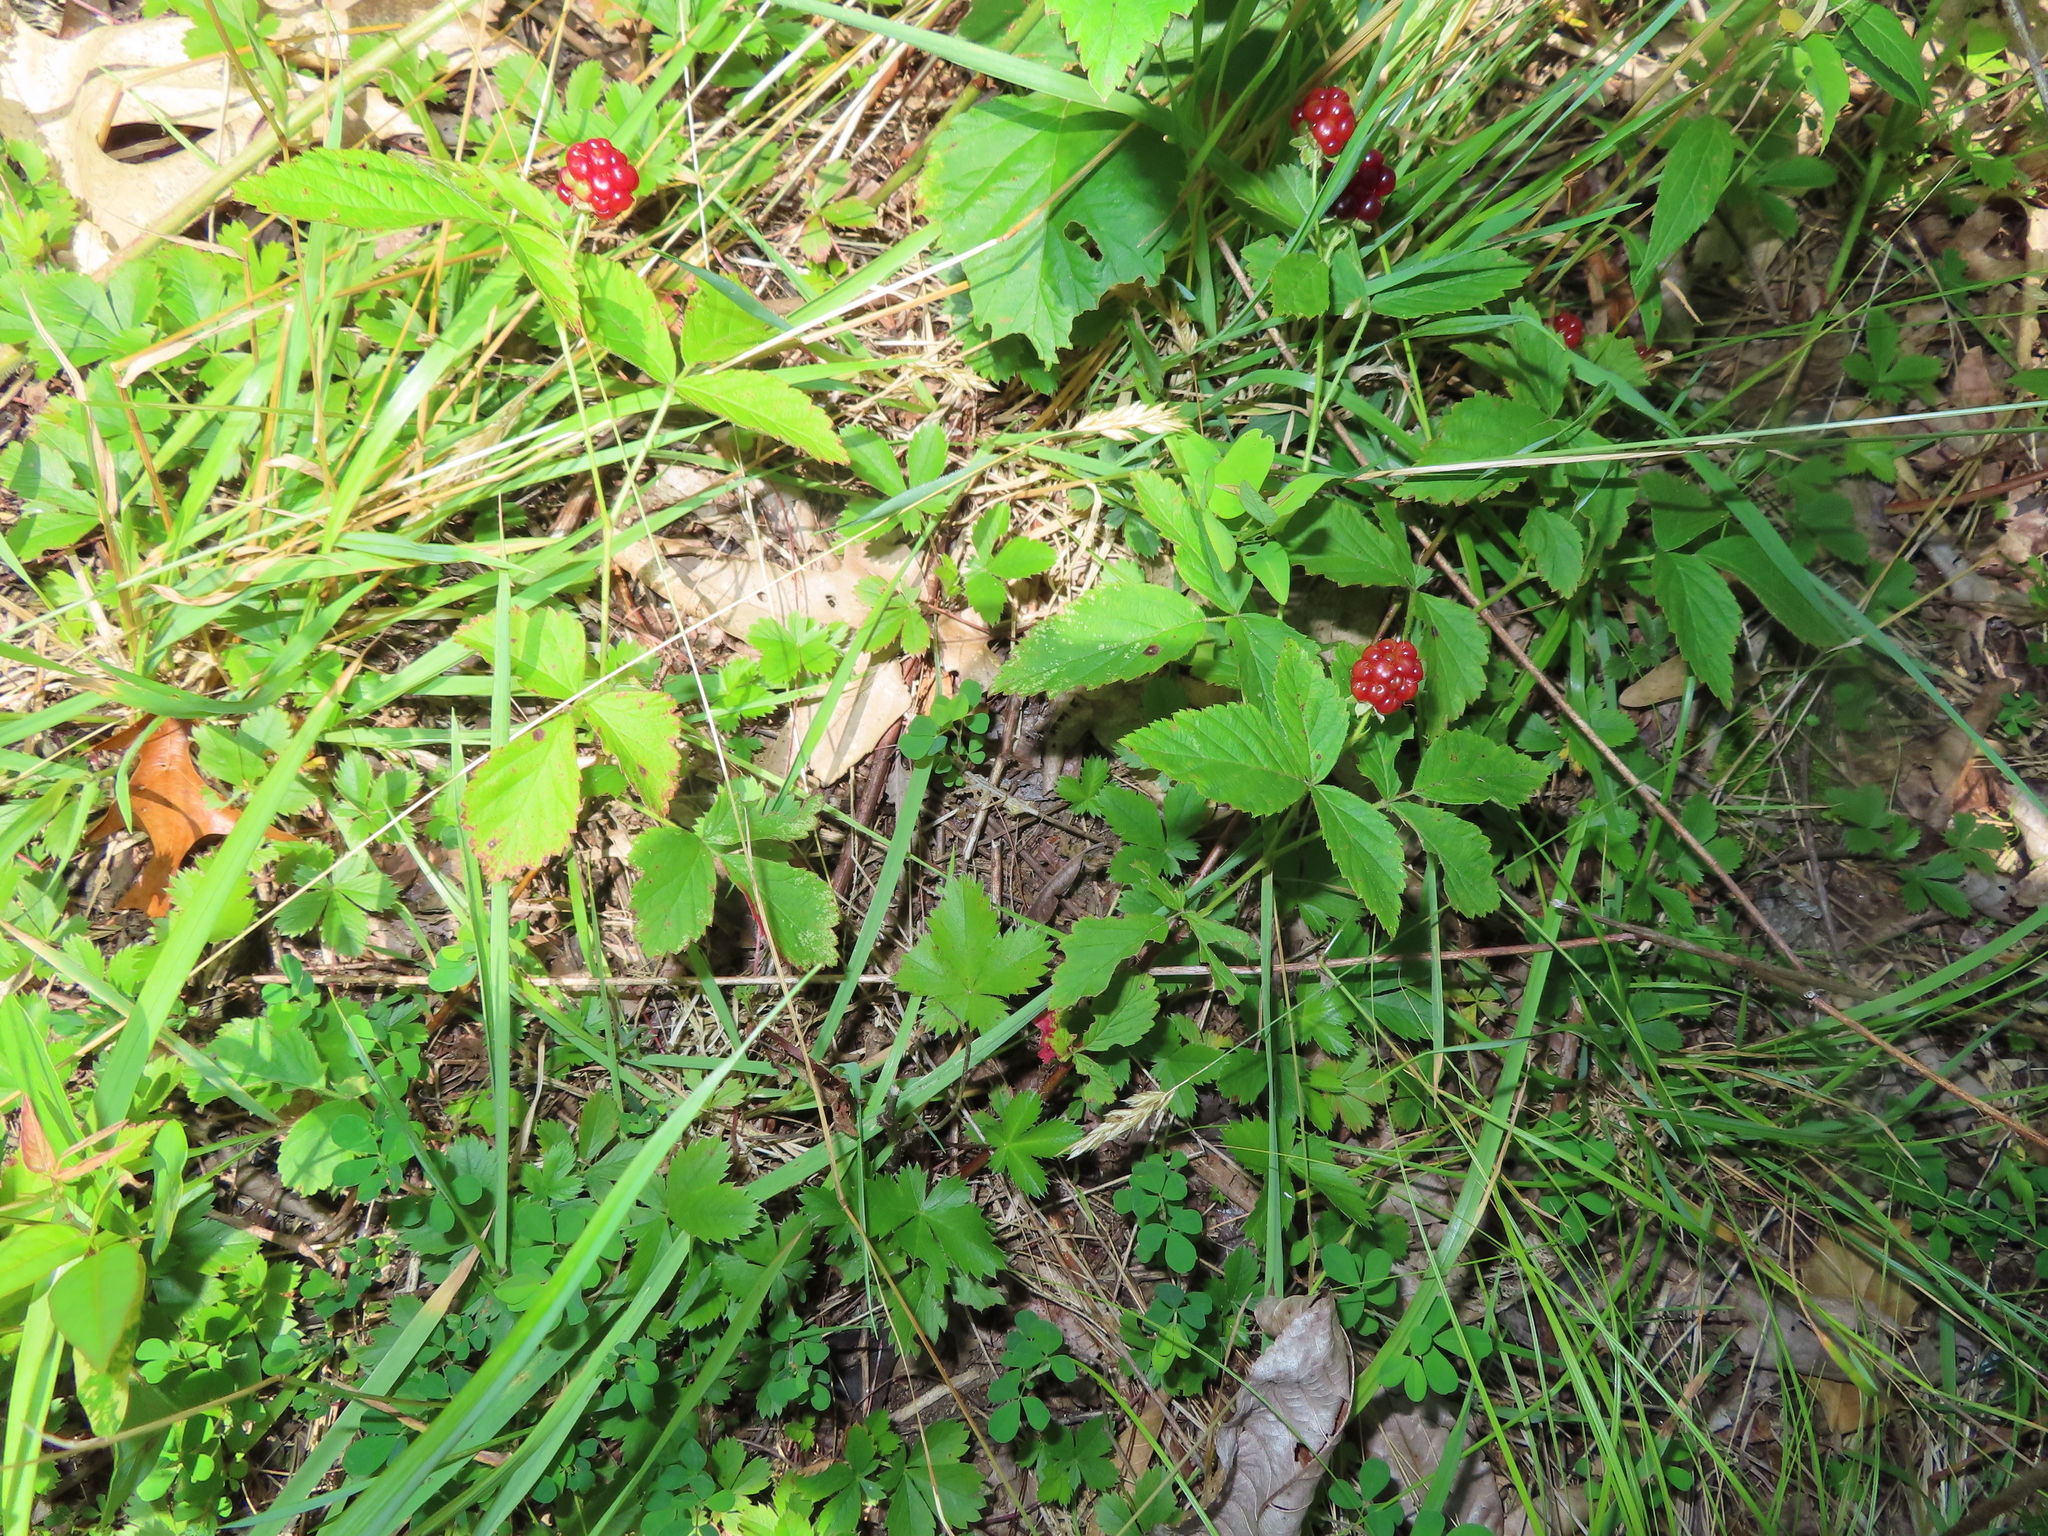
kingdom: Plantae
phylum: Tracheophyta
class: Magnoliopsida
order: Rosales
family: Rosaceae
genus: Rubus
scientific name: Rubus flagellaris
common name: American dewberry
